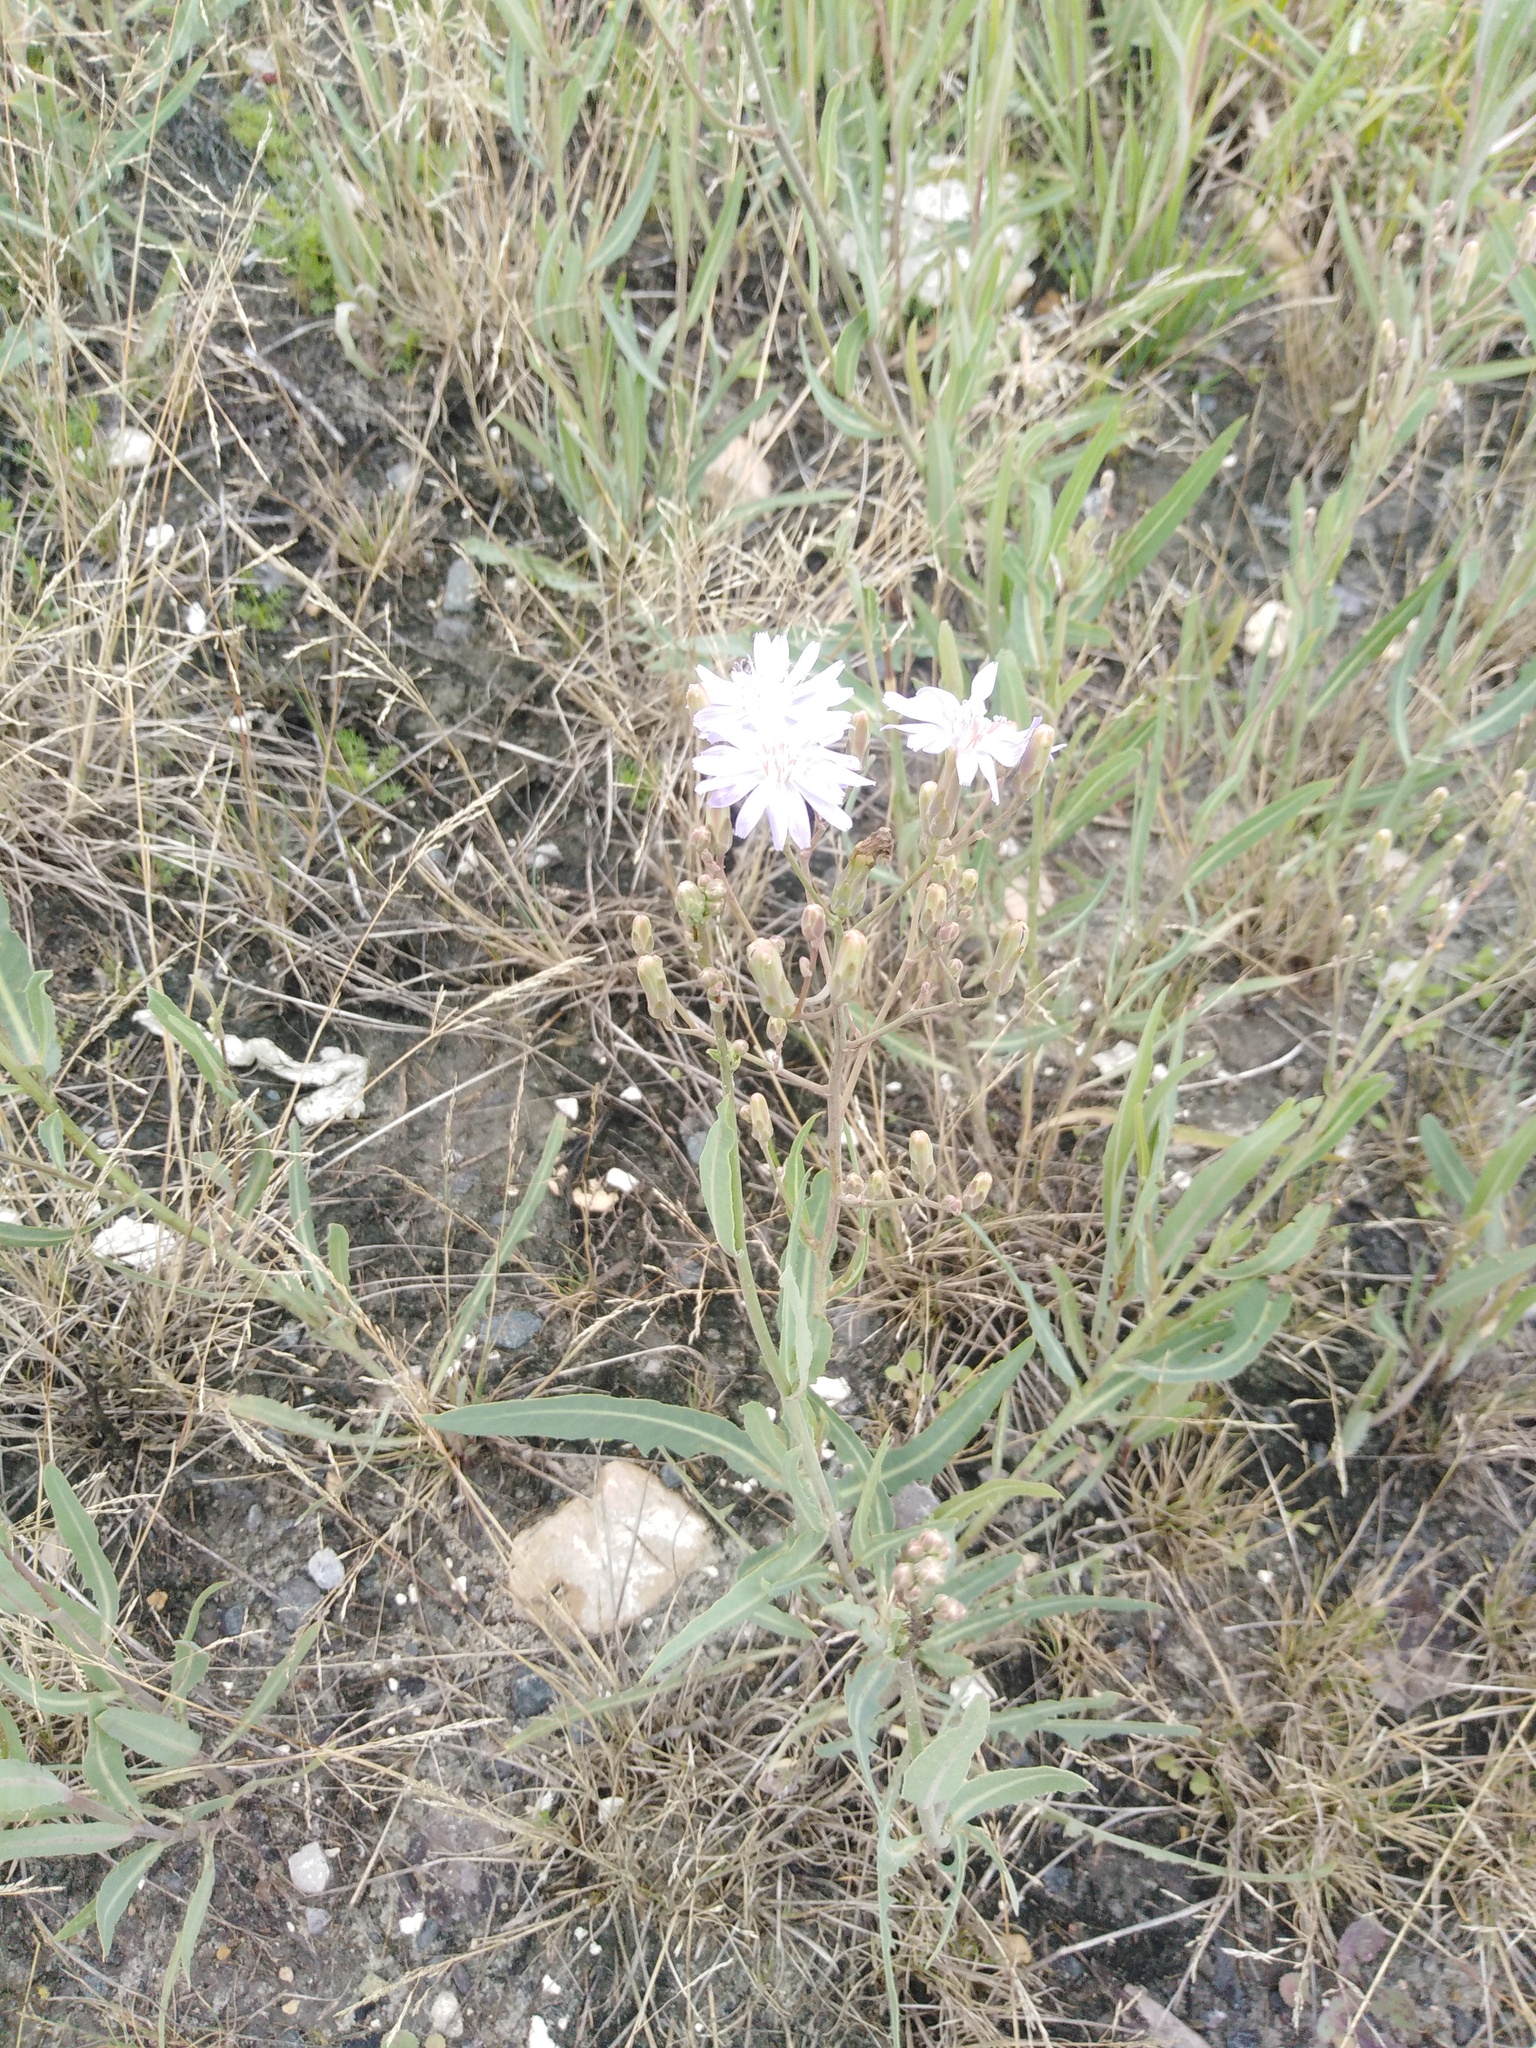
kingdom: Plantae
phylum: Tracheophyta
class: Magnoliopsida
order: Asterales
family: Asteraceae
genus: Lactuca
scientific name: Lactuca tatarica
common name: Blue lettuce
